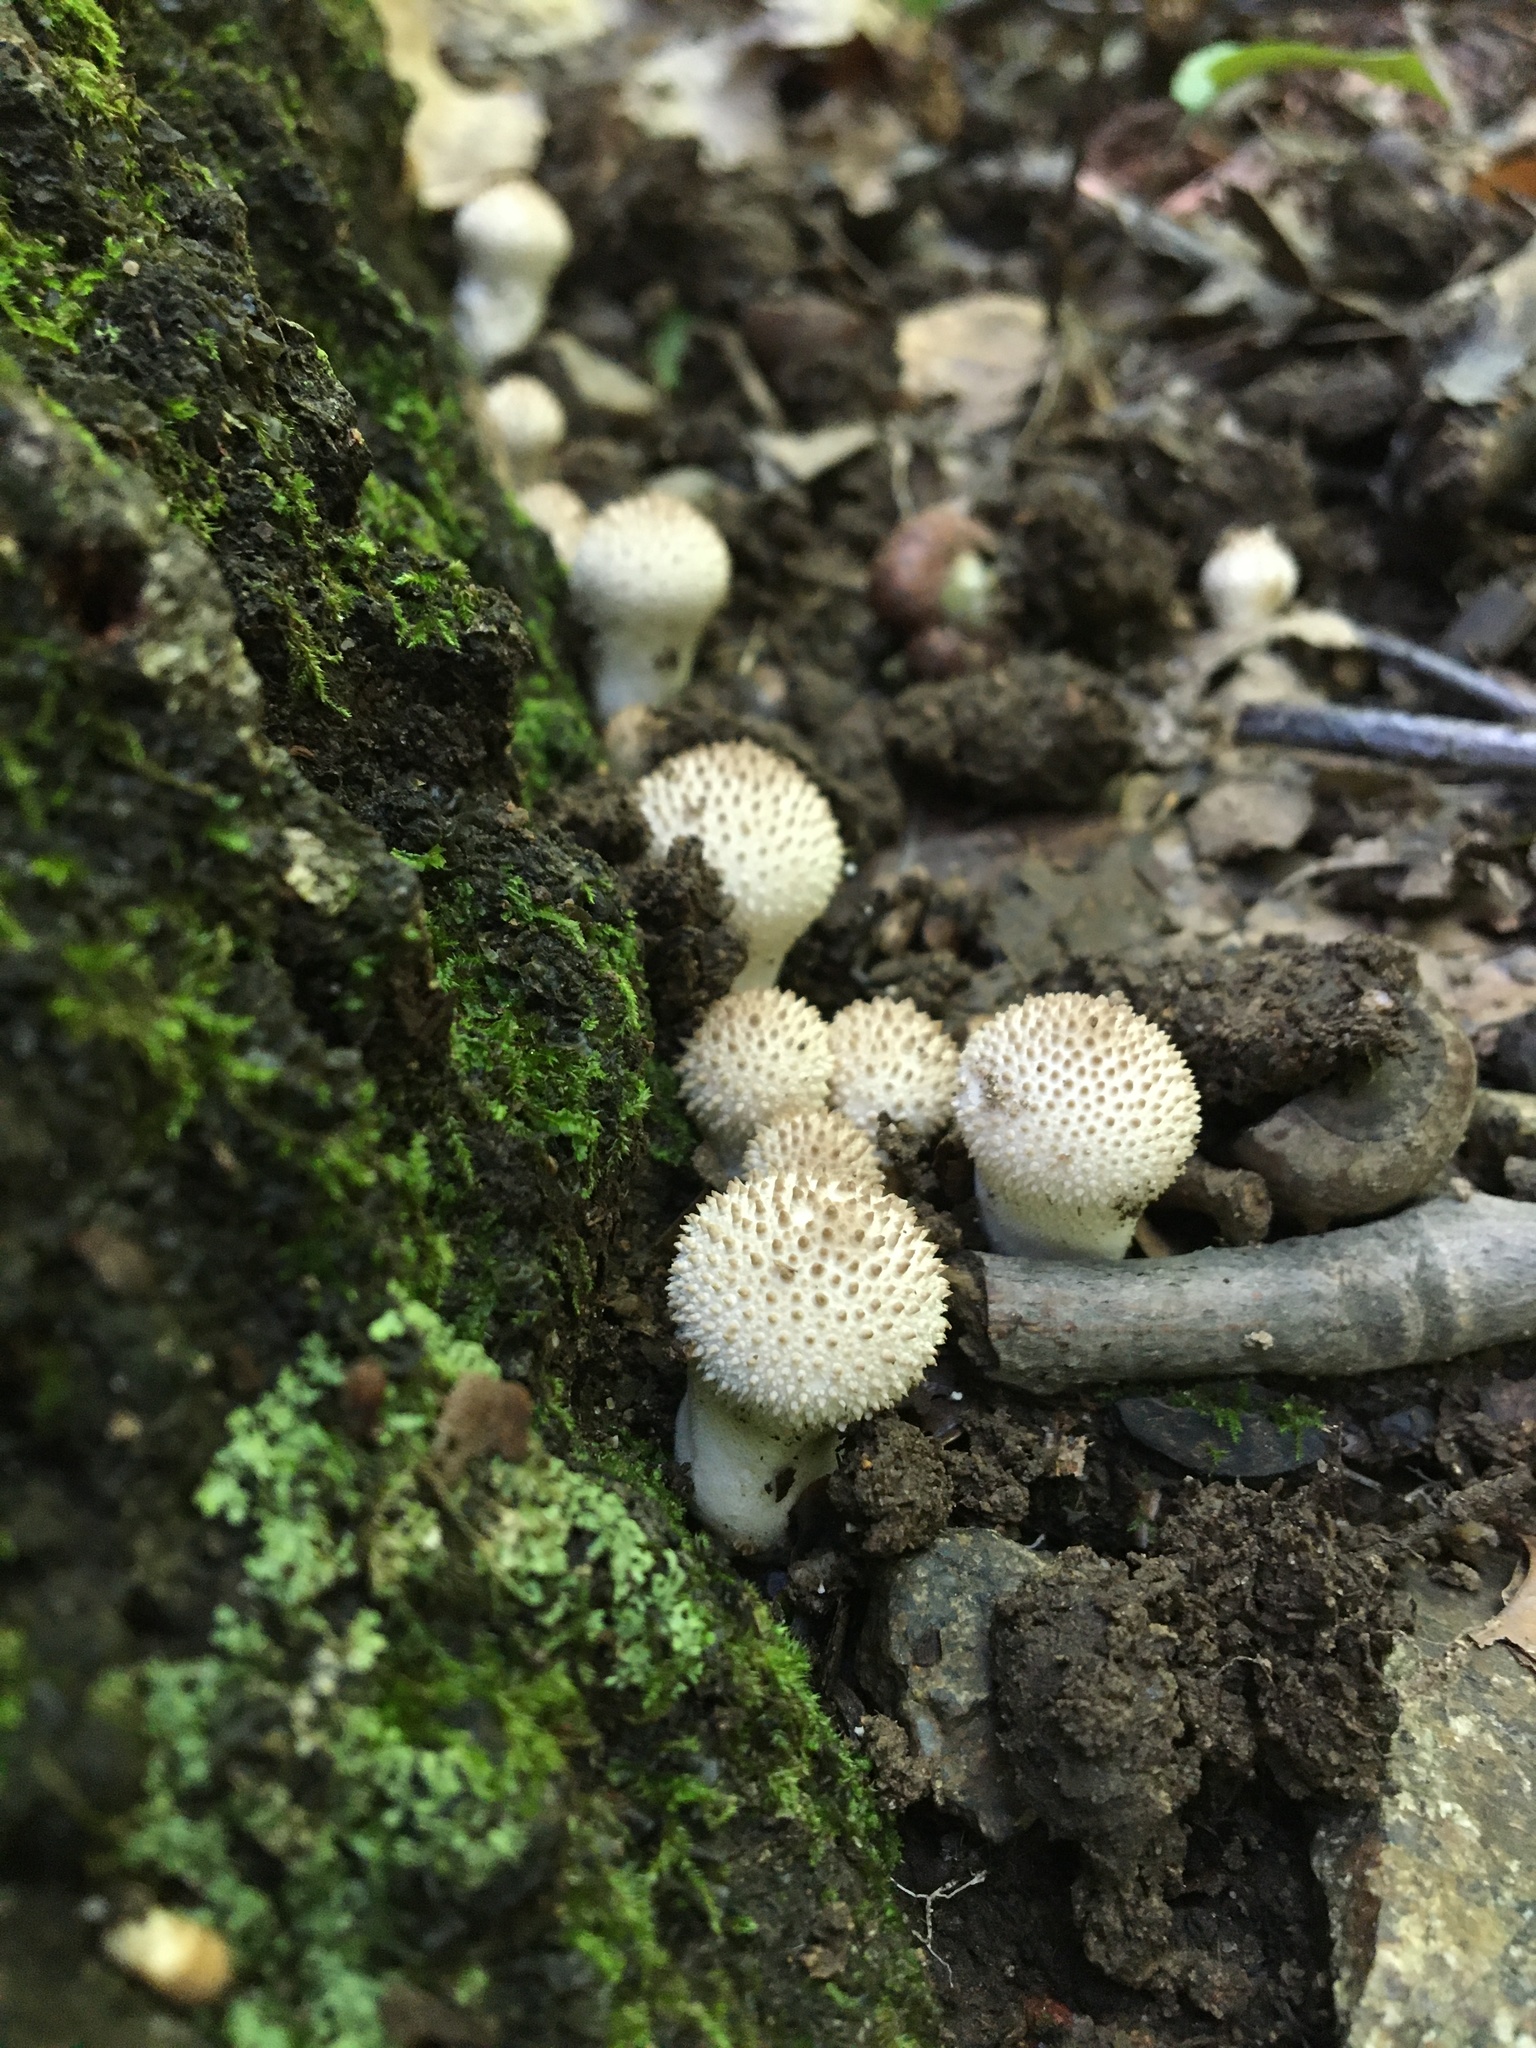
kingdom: Fungi
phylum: Basidiomycota
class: Agaricomycetes
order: Agaricales
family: Lycoperdaceae
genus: Lycoperdon
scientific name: Lycoperdon perlatum
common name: Common puffball
